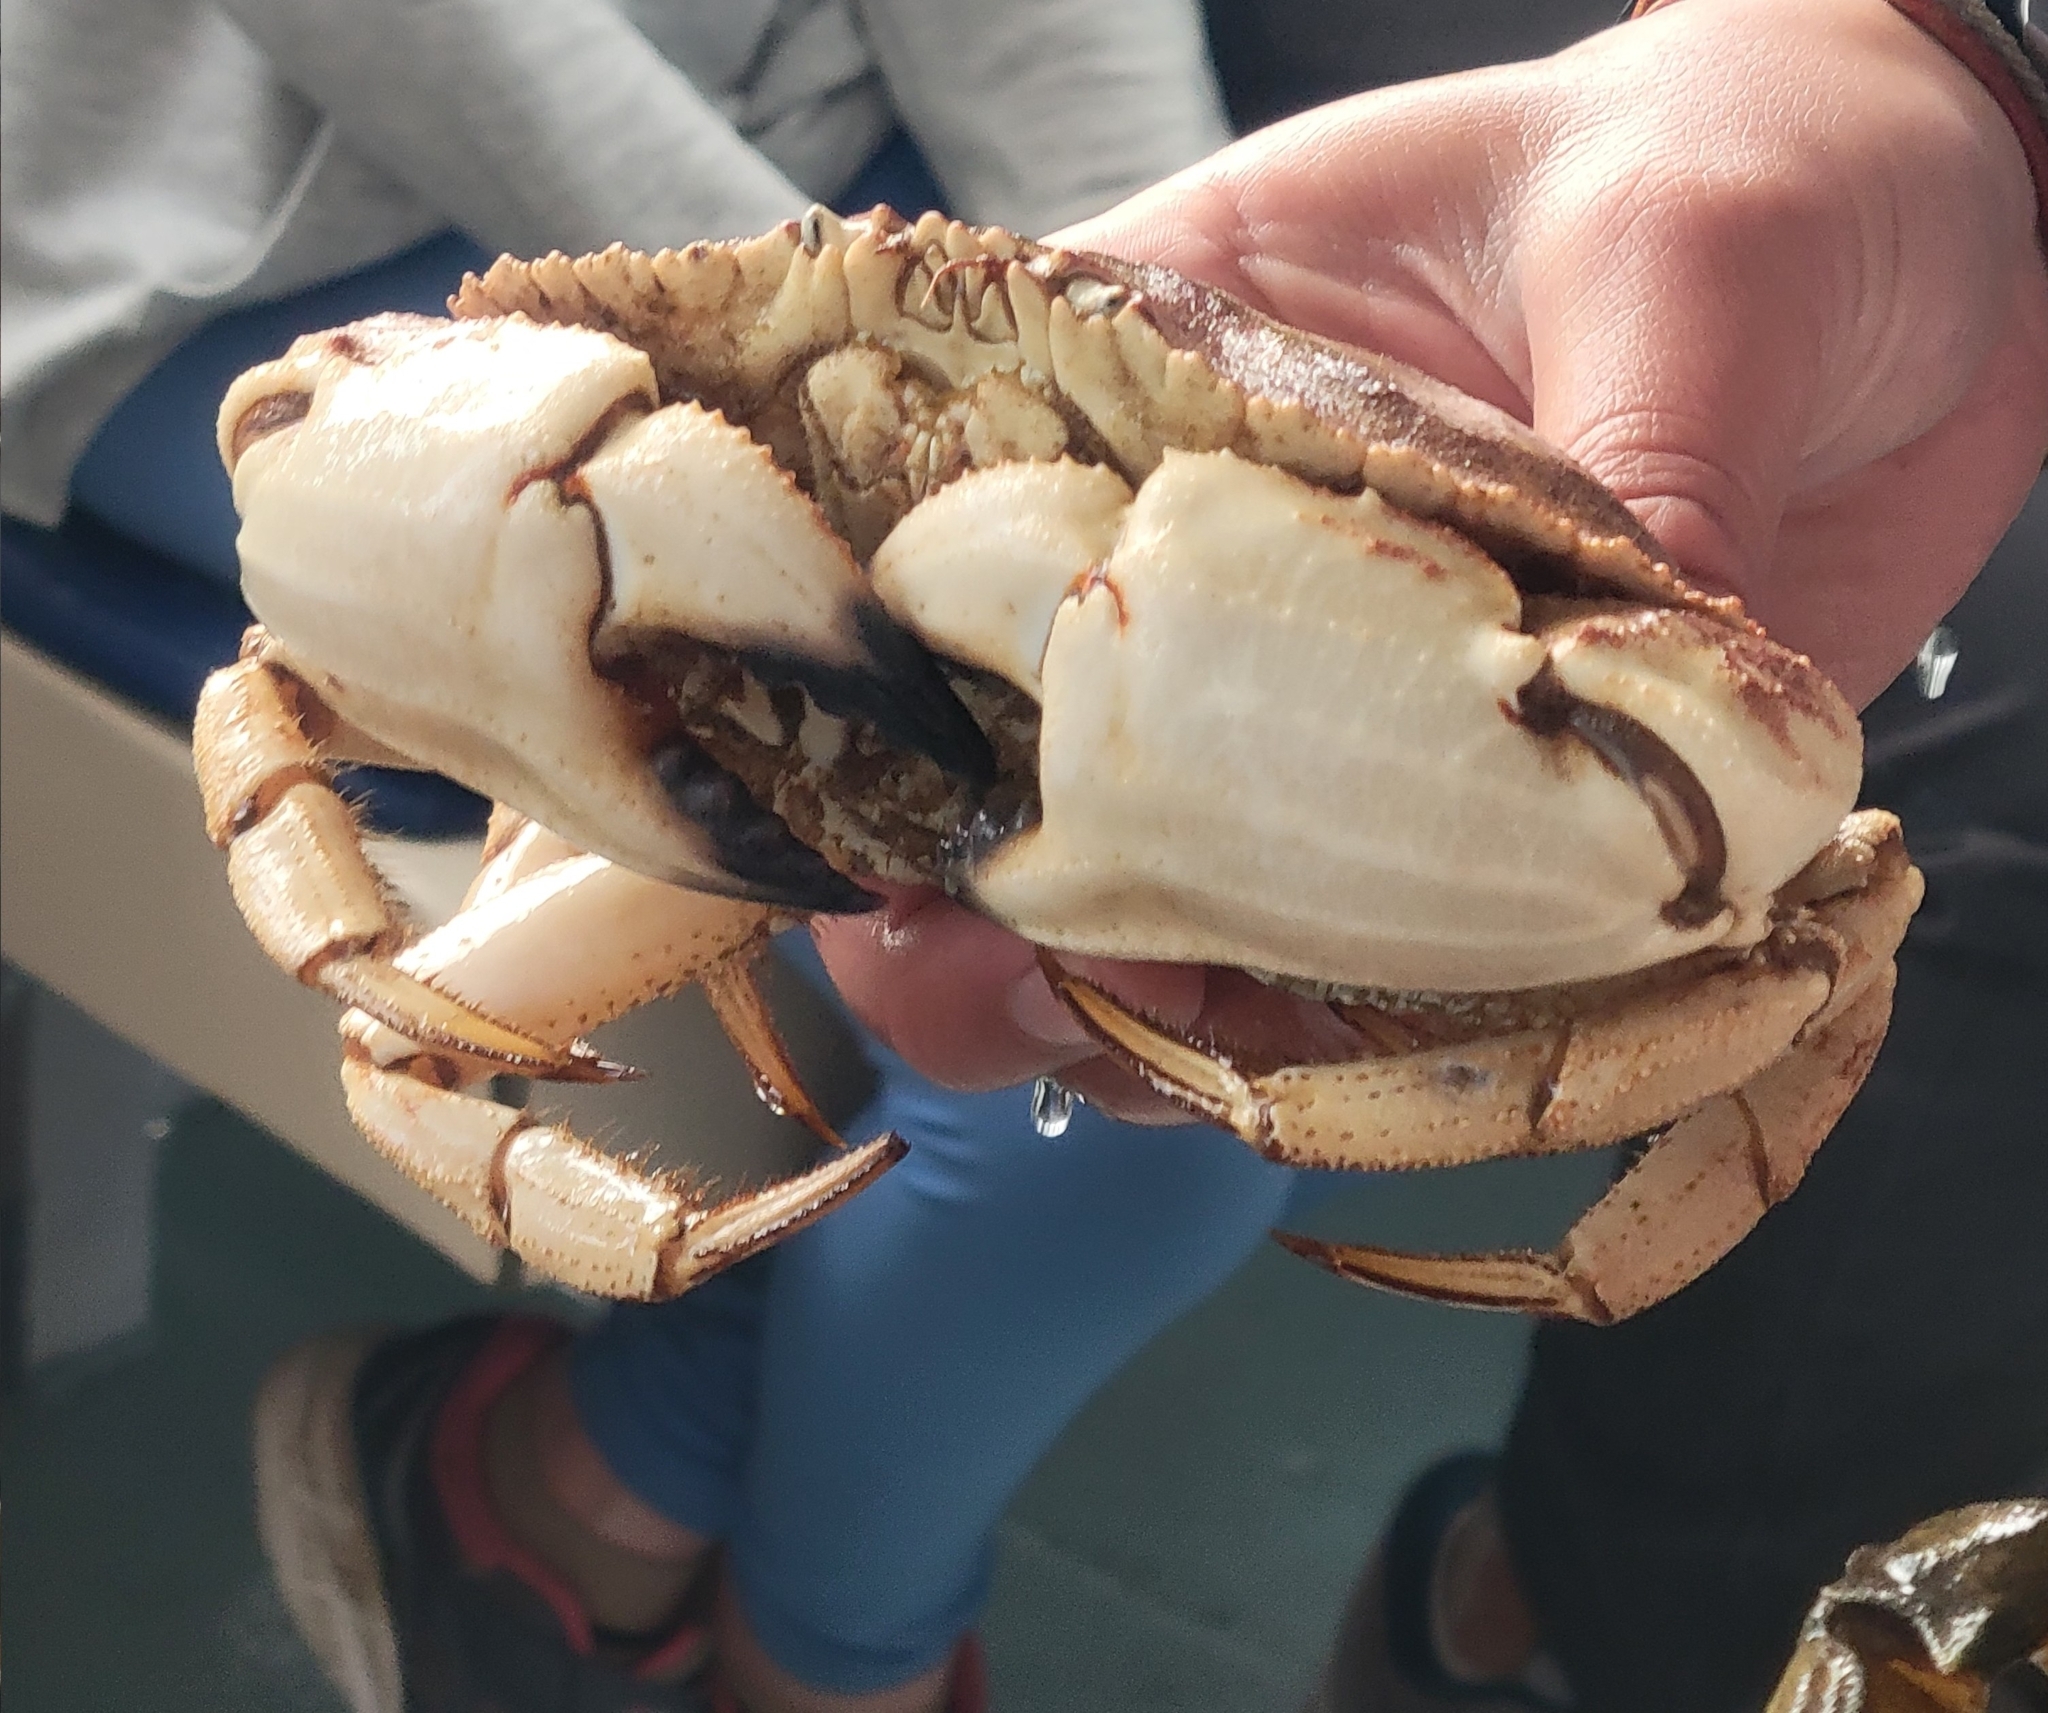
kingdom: Animalia
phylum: Arthropoda
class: Malacostraca
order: Decapoda
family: Cancridae
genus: Cancer
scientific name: Cancer borealis
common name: Jonah crab
